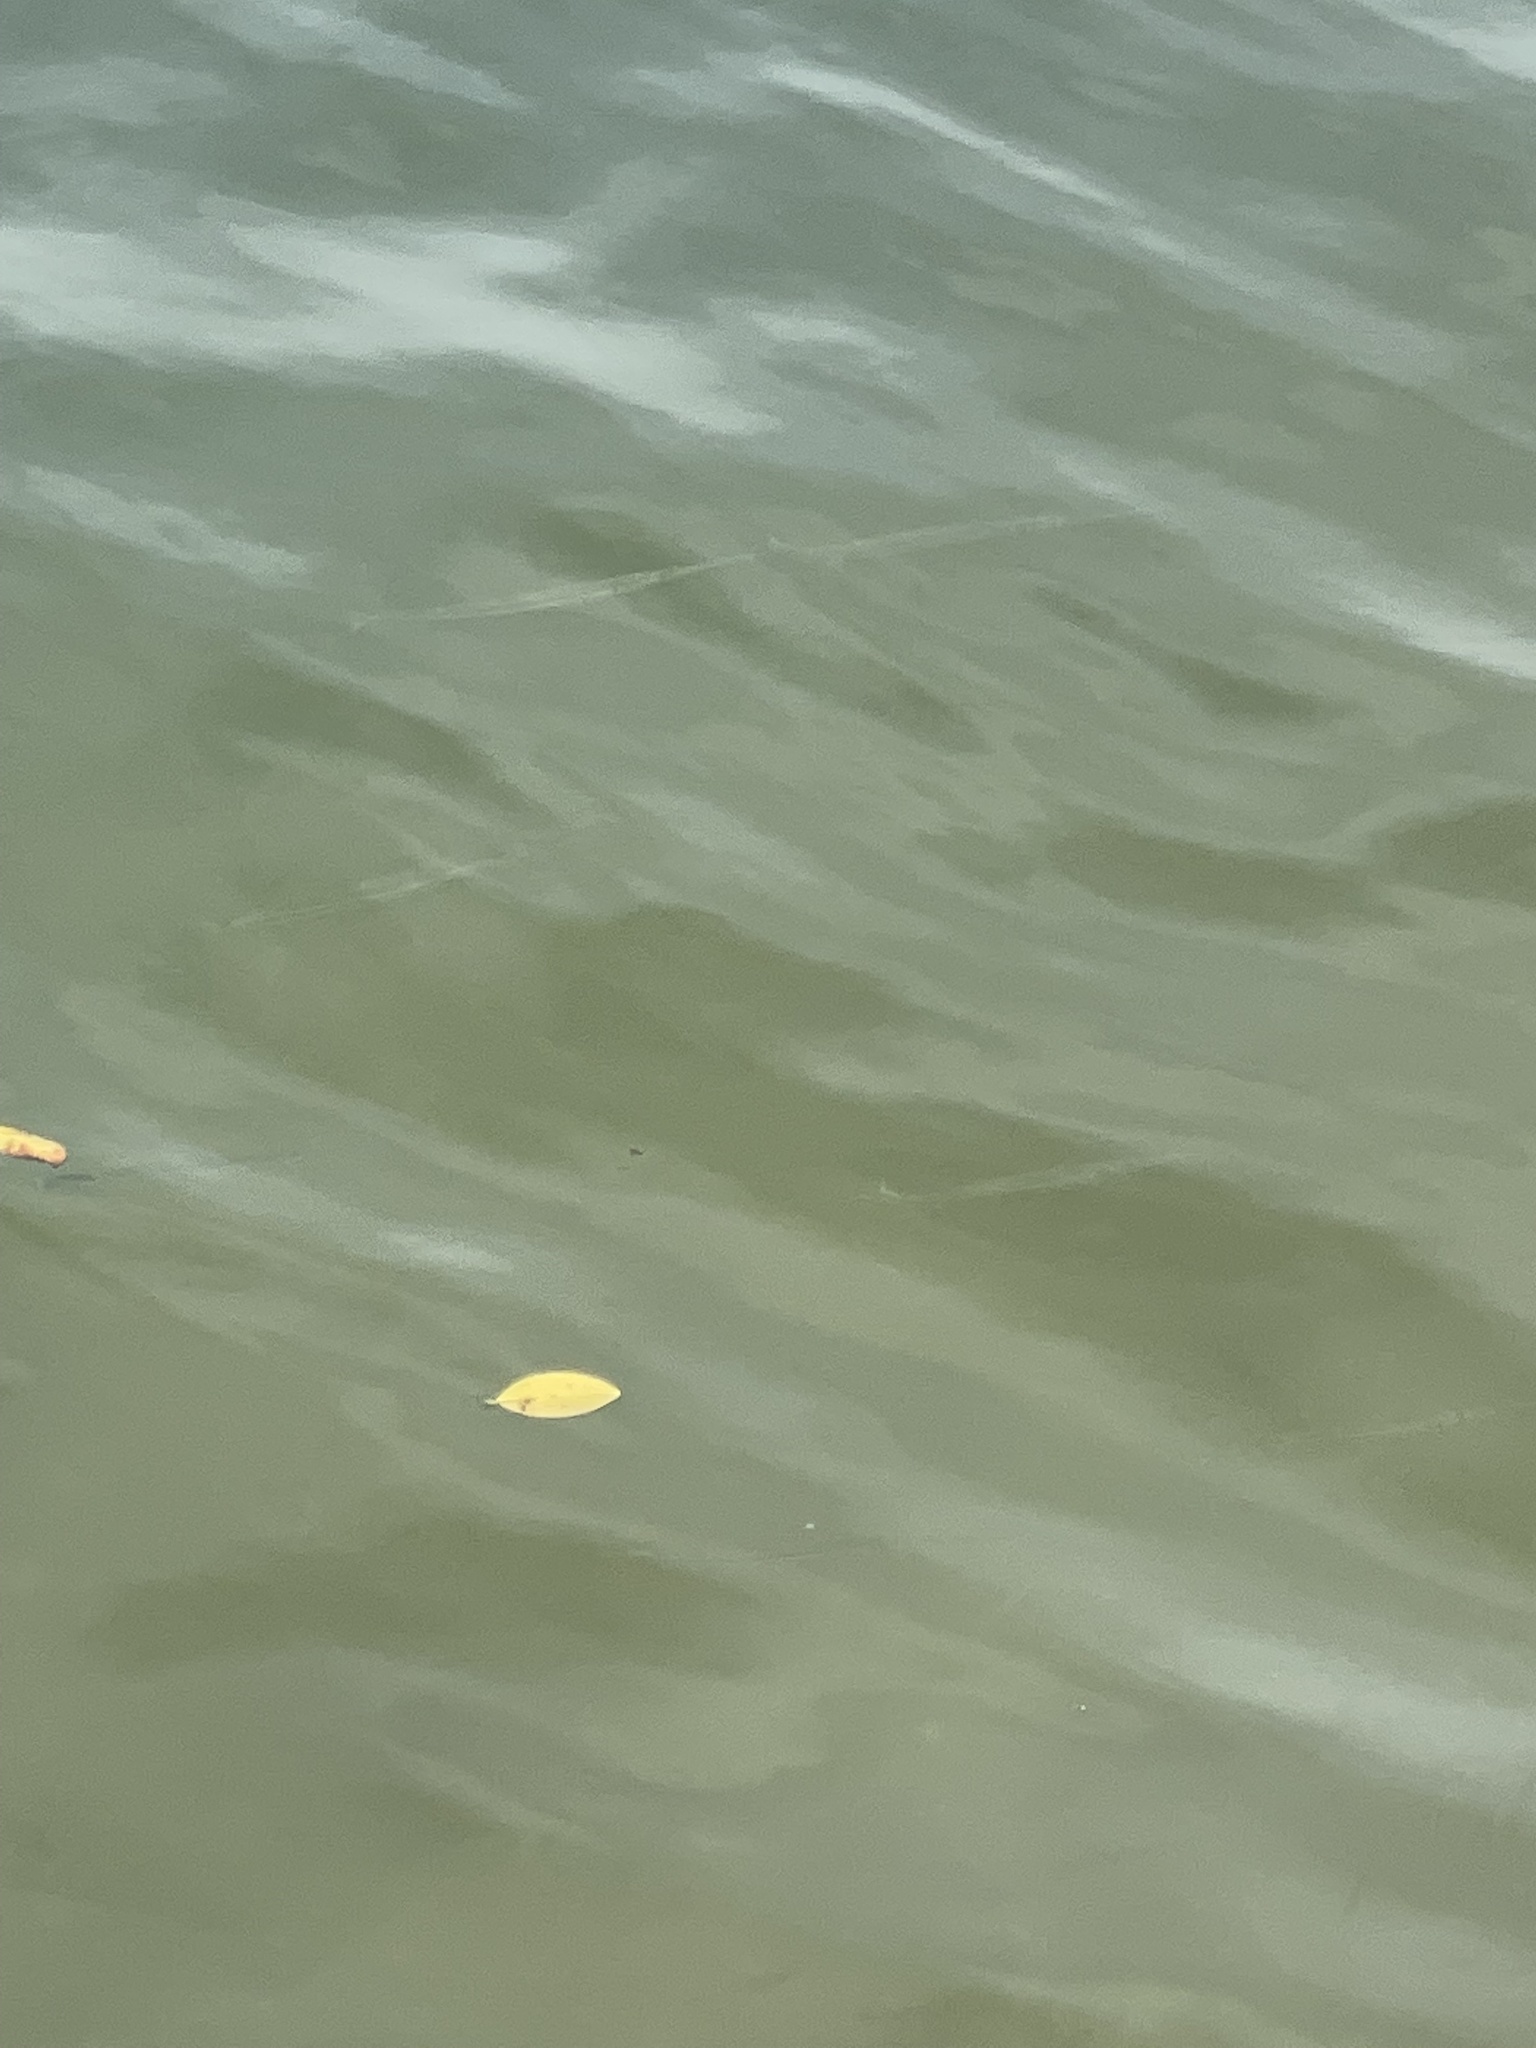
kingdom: Animalia
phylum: Chordata
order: Beloniformes
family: Belonidae
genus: Strongylura
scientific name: Strongylura marina
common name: Atlantic needlefish
